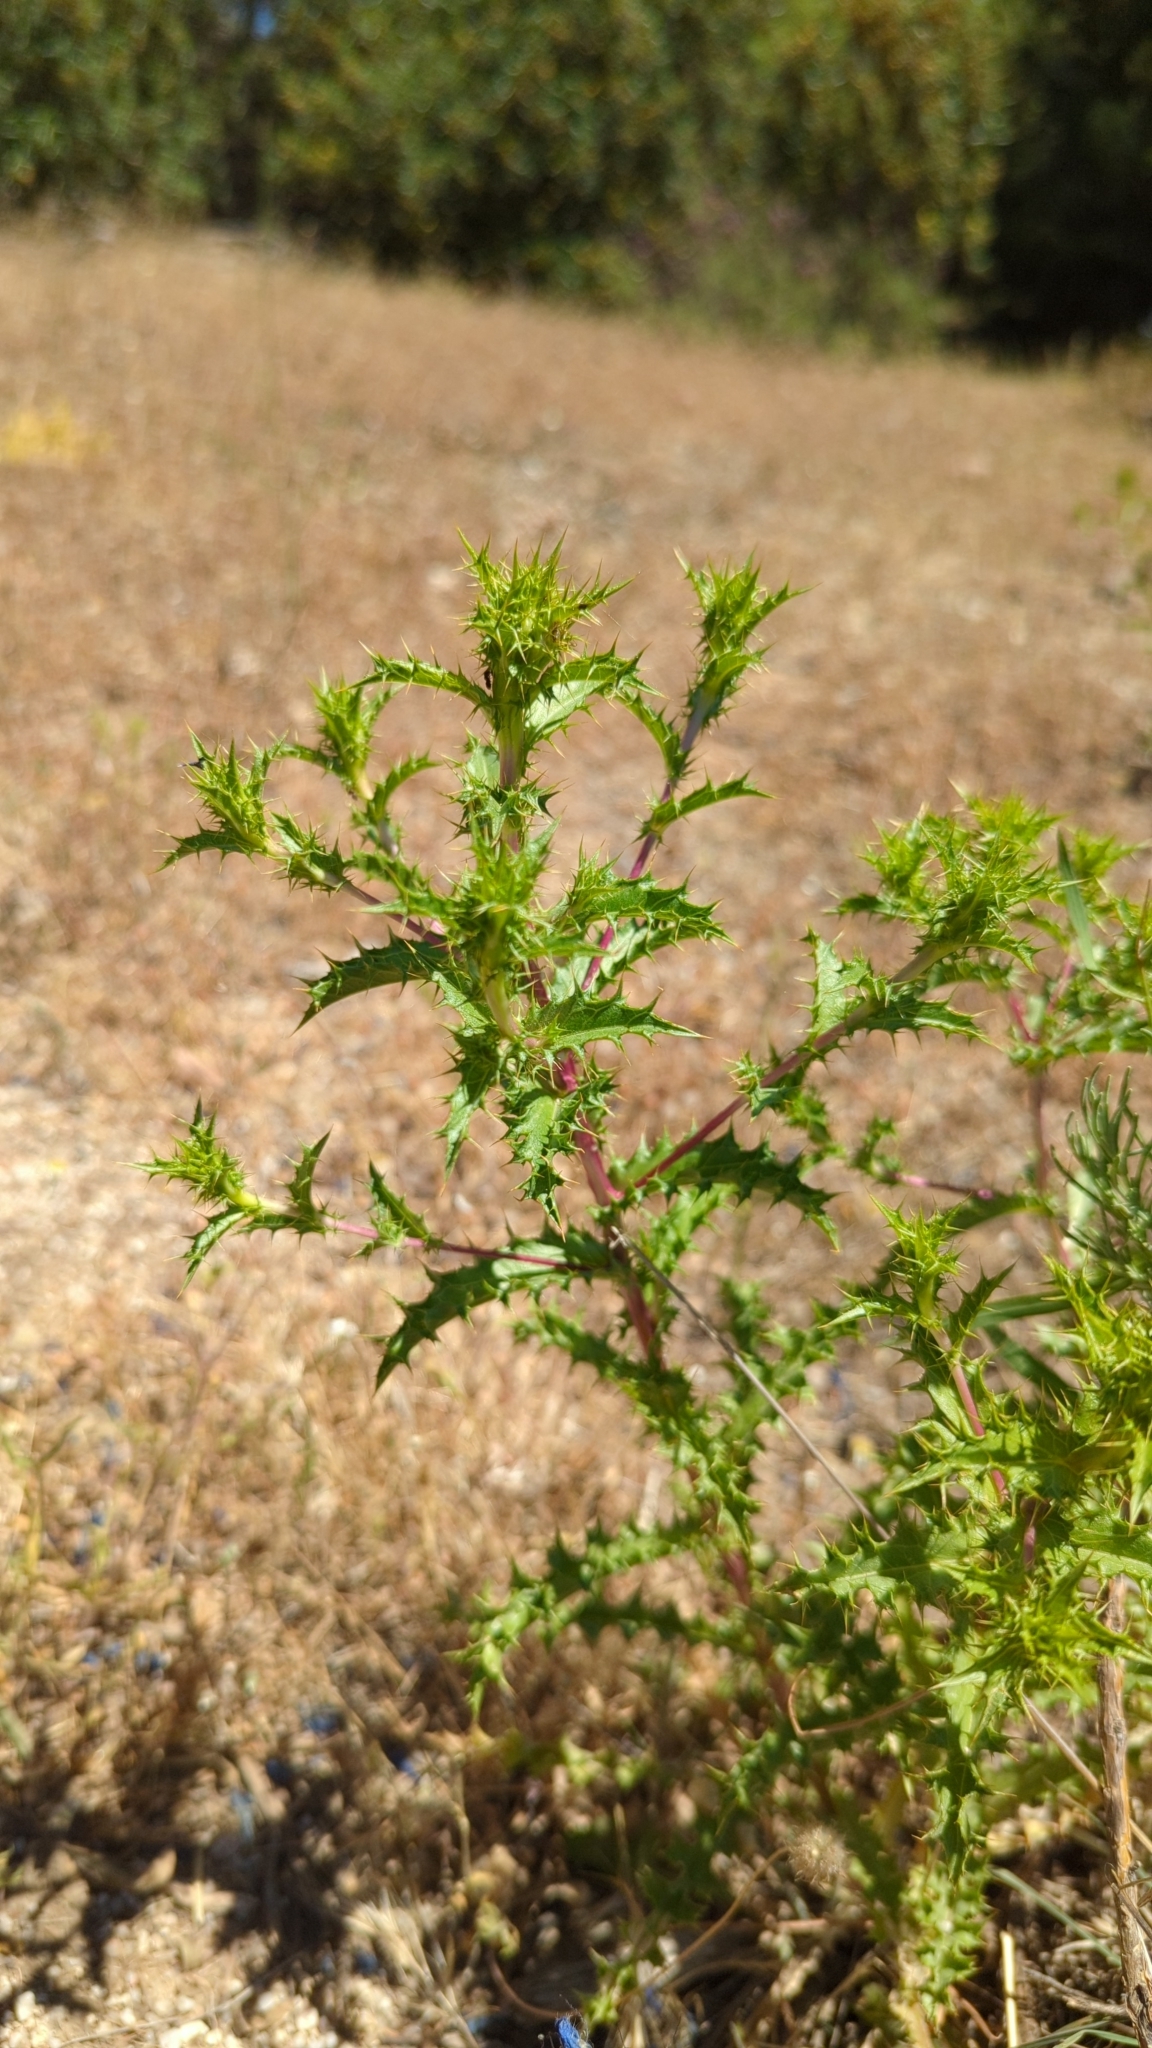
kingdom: Plantae
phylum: Tracheophyta
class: Magnoliopsida
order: Asterales
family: Asteraceae
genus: Carlina
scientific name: Carlina hispanica
